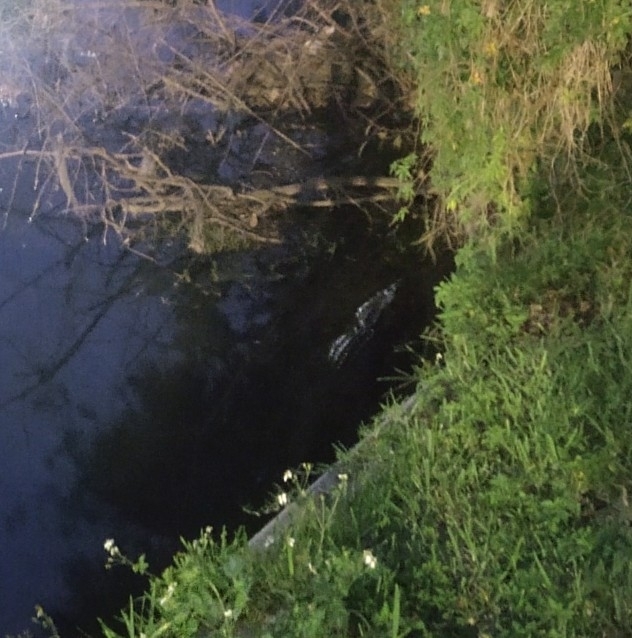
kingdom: Animalia
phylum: Chordata
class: Crocodylia
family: Alligatoridae
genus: Alligator
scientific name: Alligator mississippiensis
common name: American alligator
